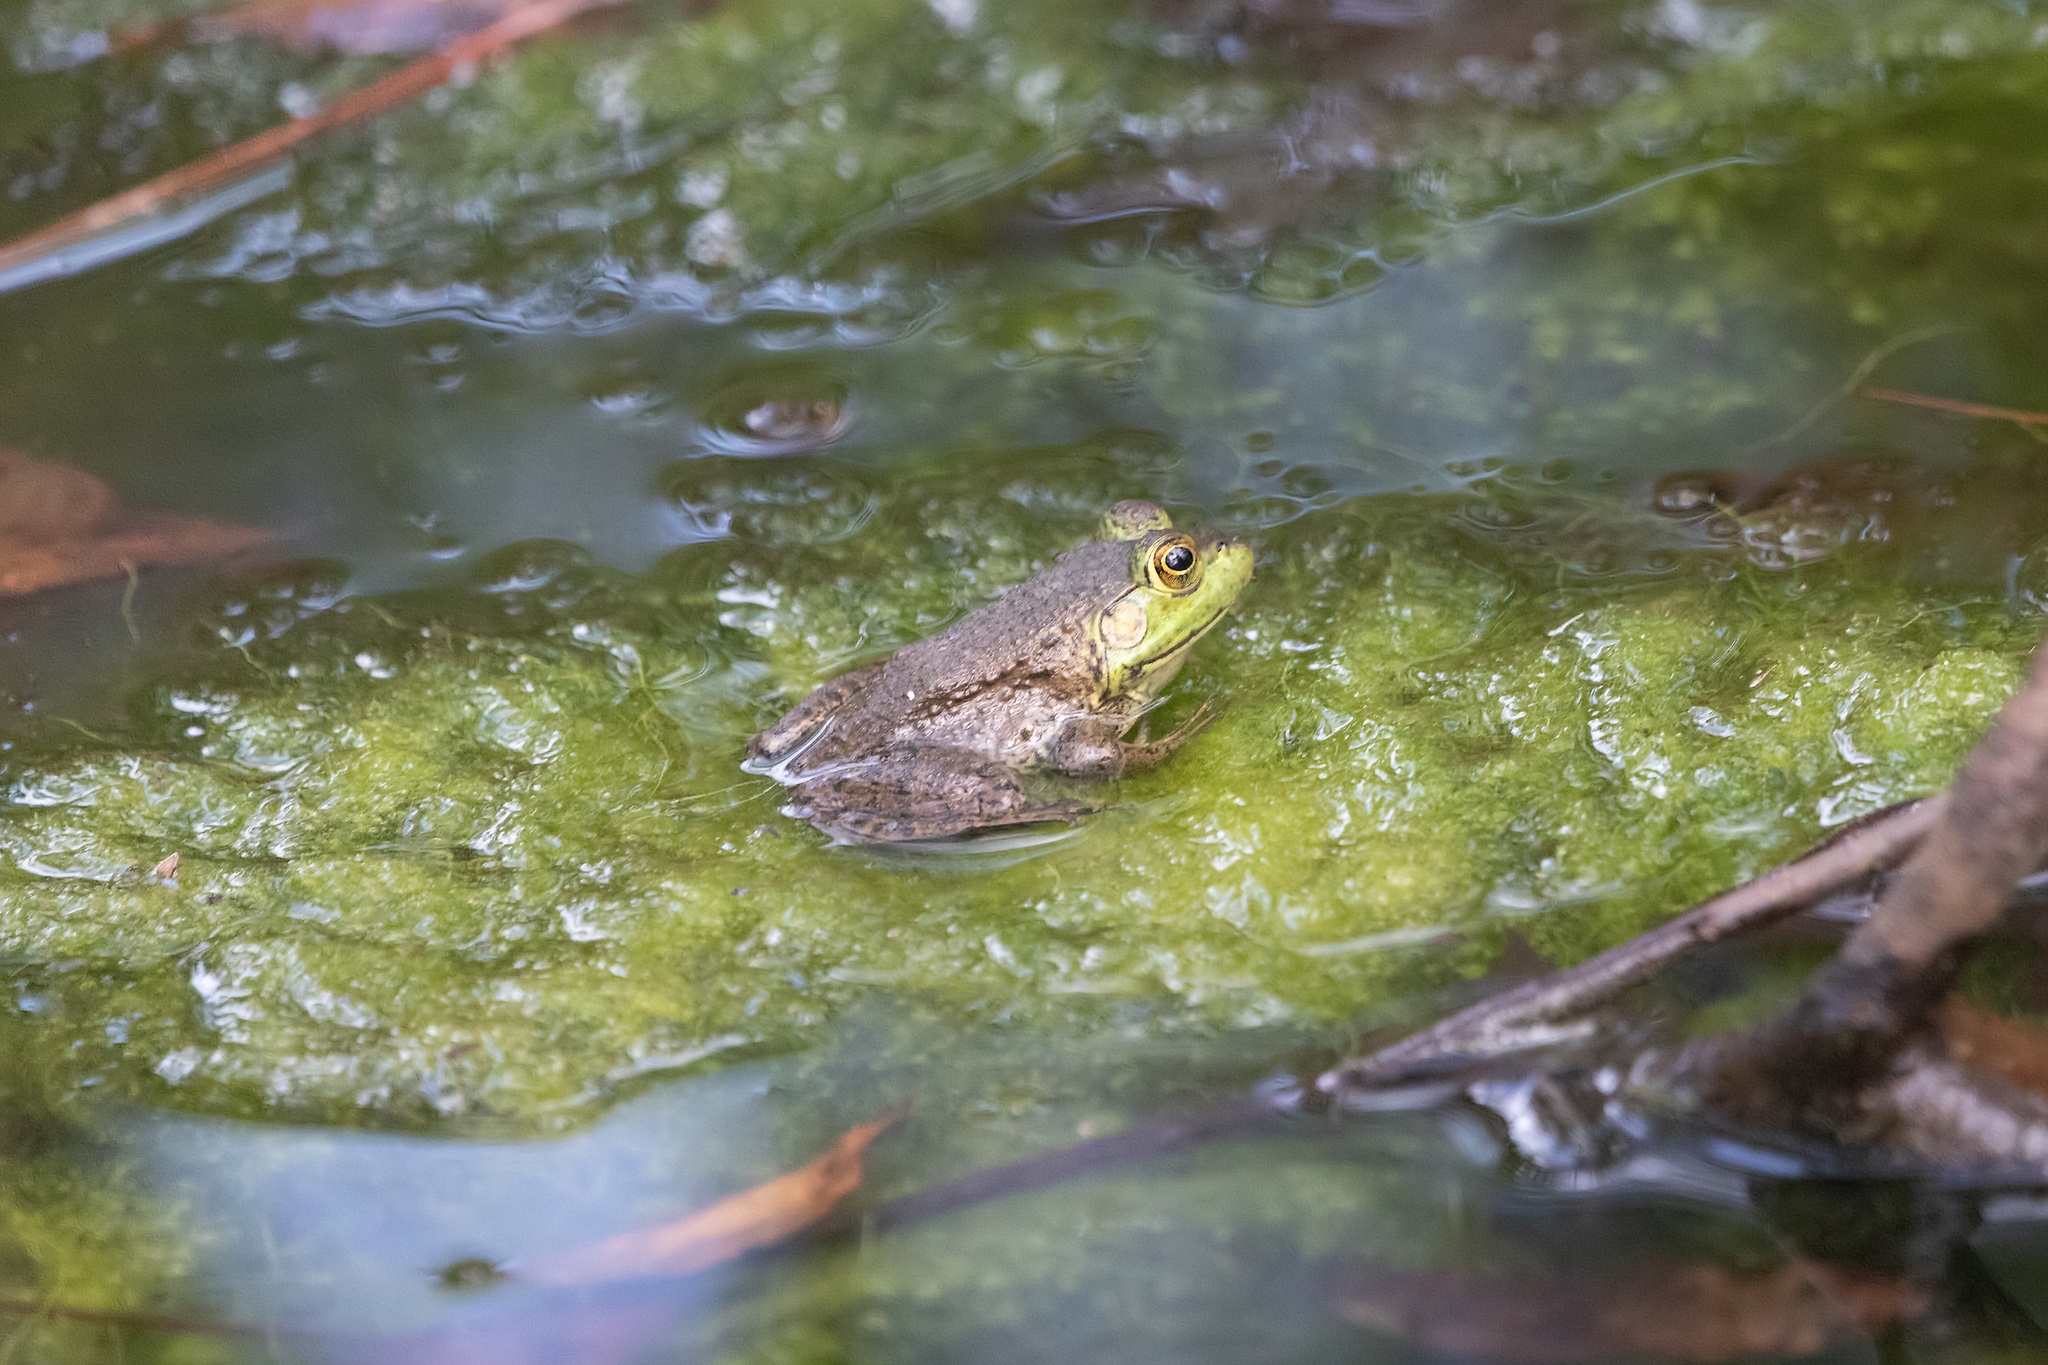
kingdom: Animalia
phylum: Chordata
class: Amphibia
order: Anura
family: Ranidae
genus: Lithobates
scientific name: Lithobates catesbeianus
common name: American bullfrog
